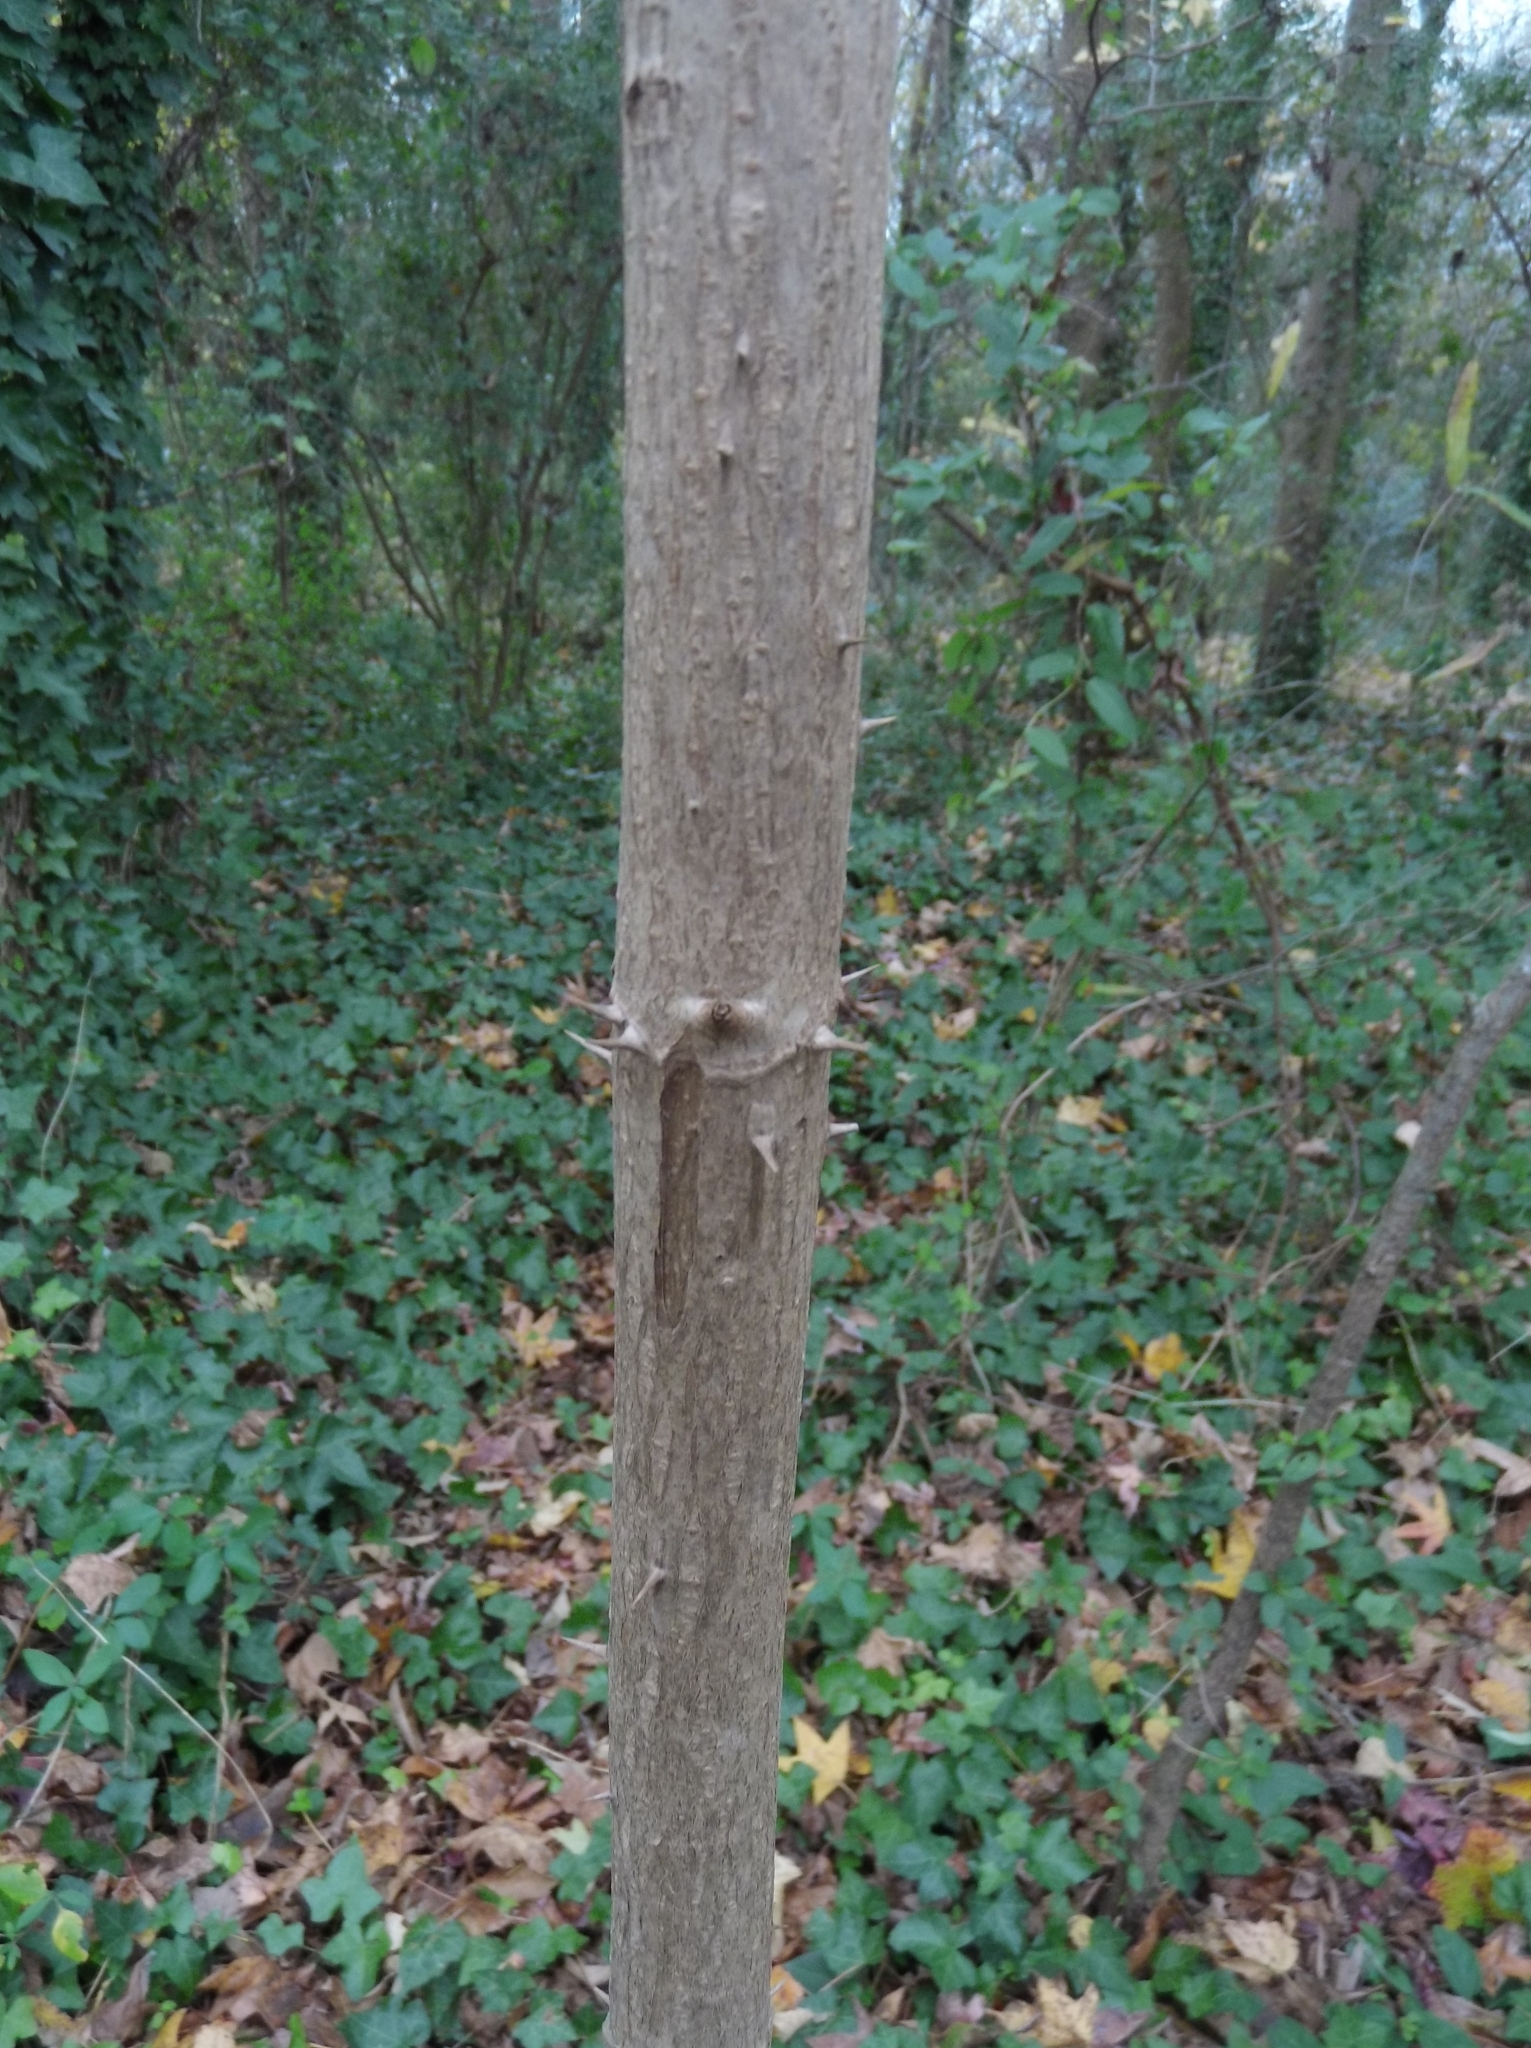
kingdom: Plantae
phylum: Tracheophyta
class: Magnoliopsida
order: Apiales
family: Araliaceae
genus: Aralia
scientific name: Aralia spinosa
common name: Hercules'-club
